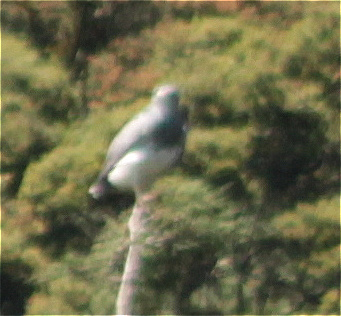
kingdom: Animalia
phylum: Chordata
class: Aves
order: Accipitriformes
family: Accipitridae
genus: Geranoaetus
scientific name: Geranoaetus melanoleucus
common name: Black-chested buzzard-eagle
